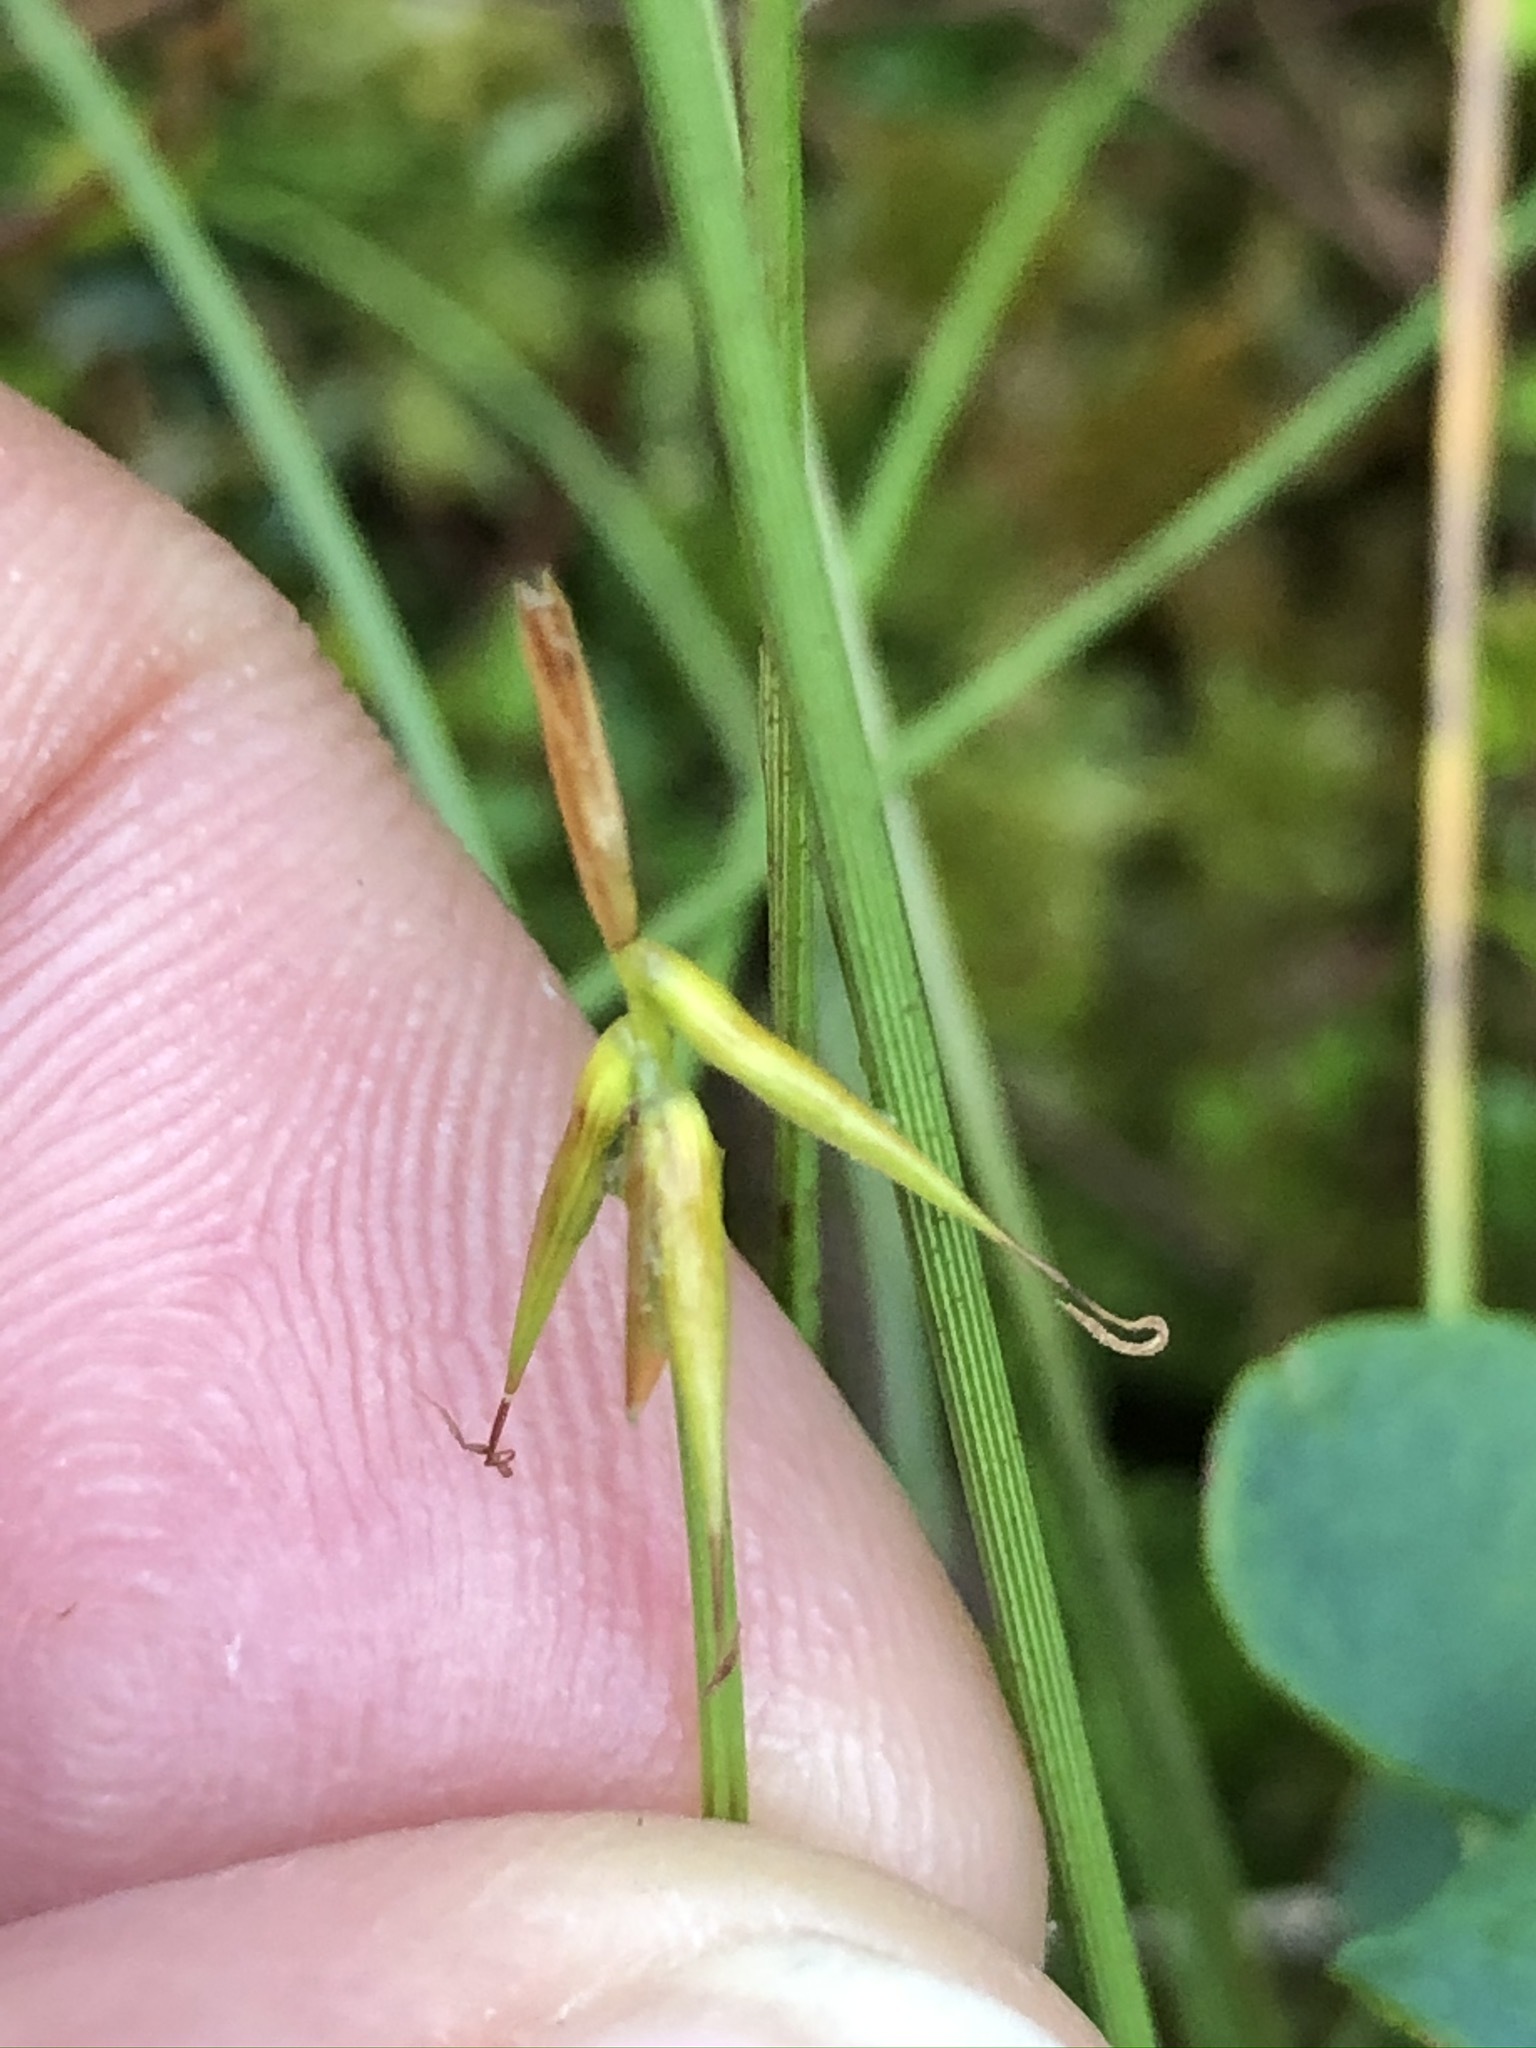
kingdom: Plantae
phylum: Tracheophyta
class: Liliopsida
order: Poales
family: Cyperaceae
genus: Carex
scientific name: Carex pauciflora
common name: Few-flowered sedge
